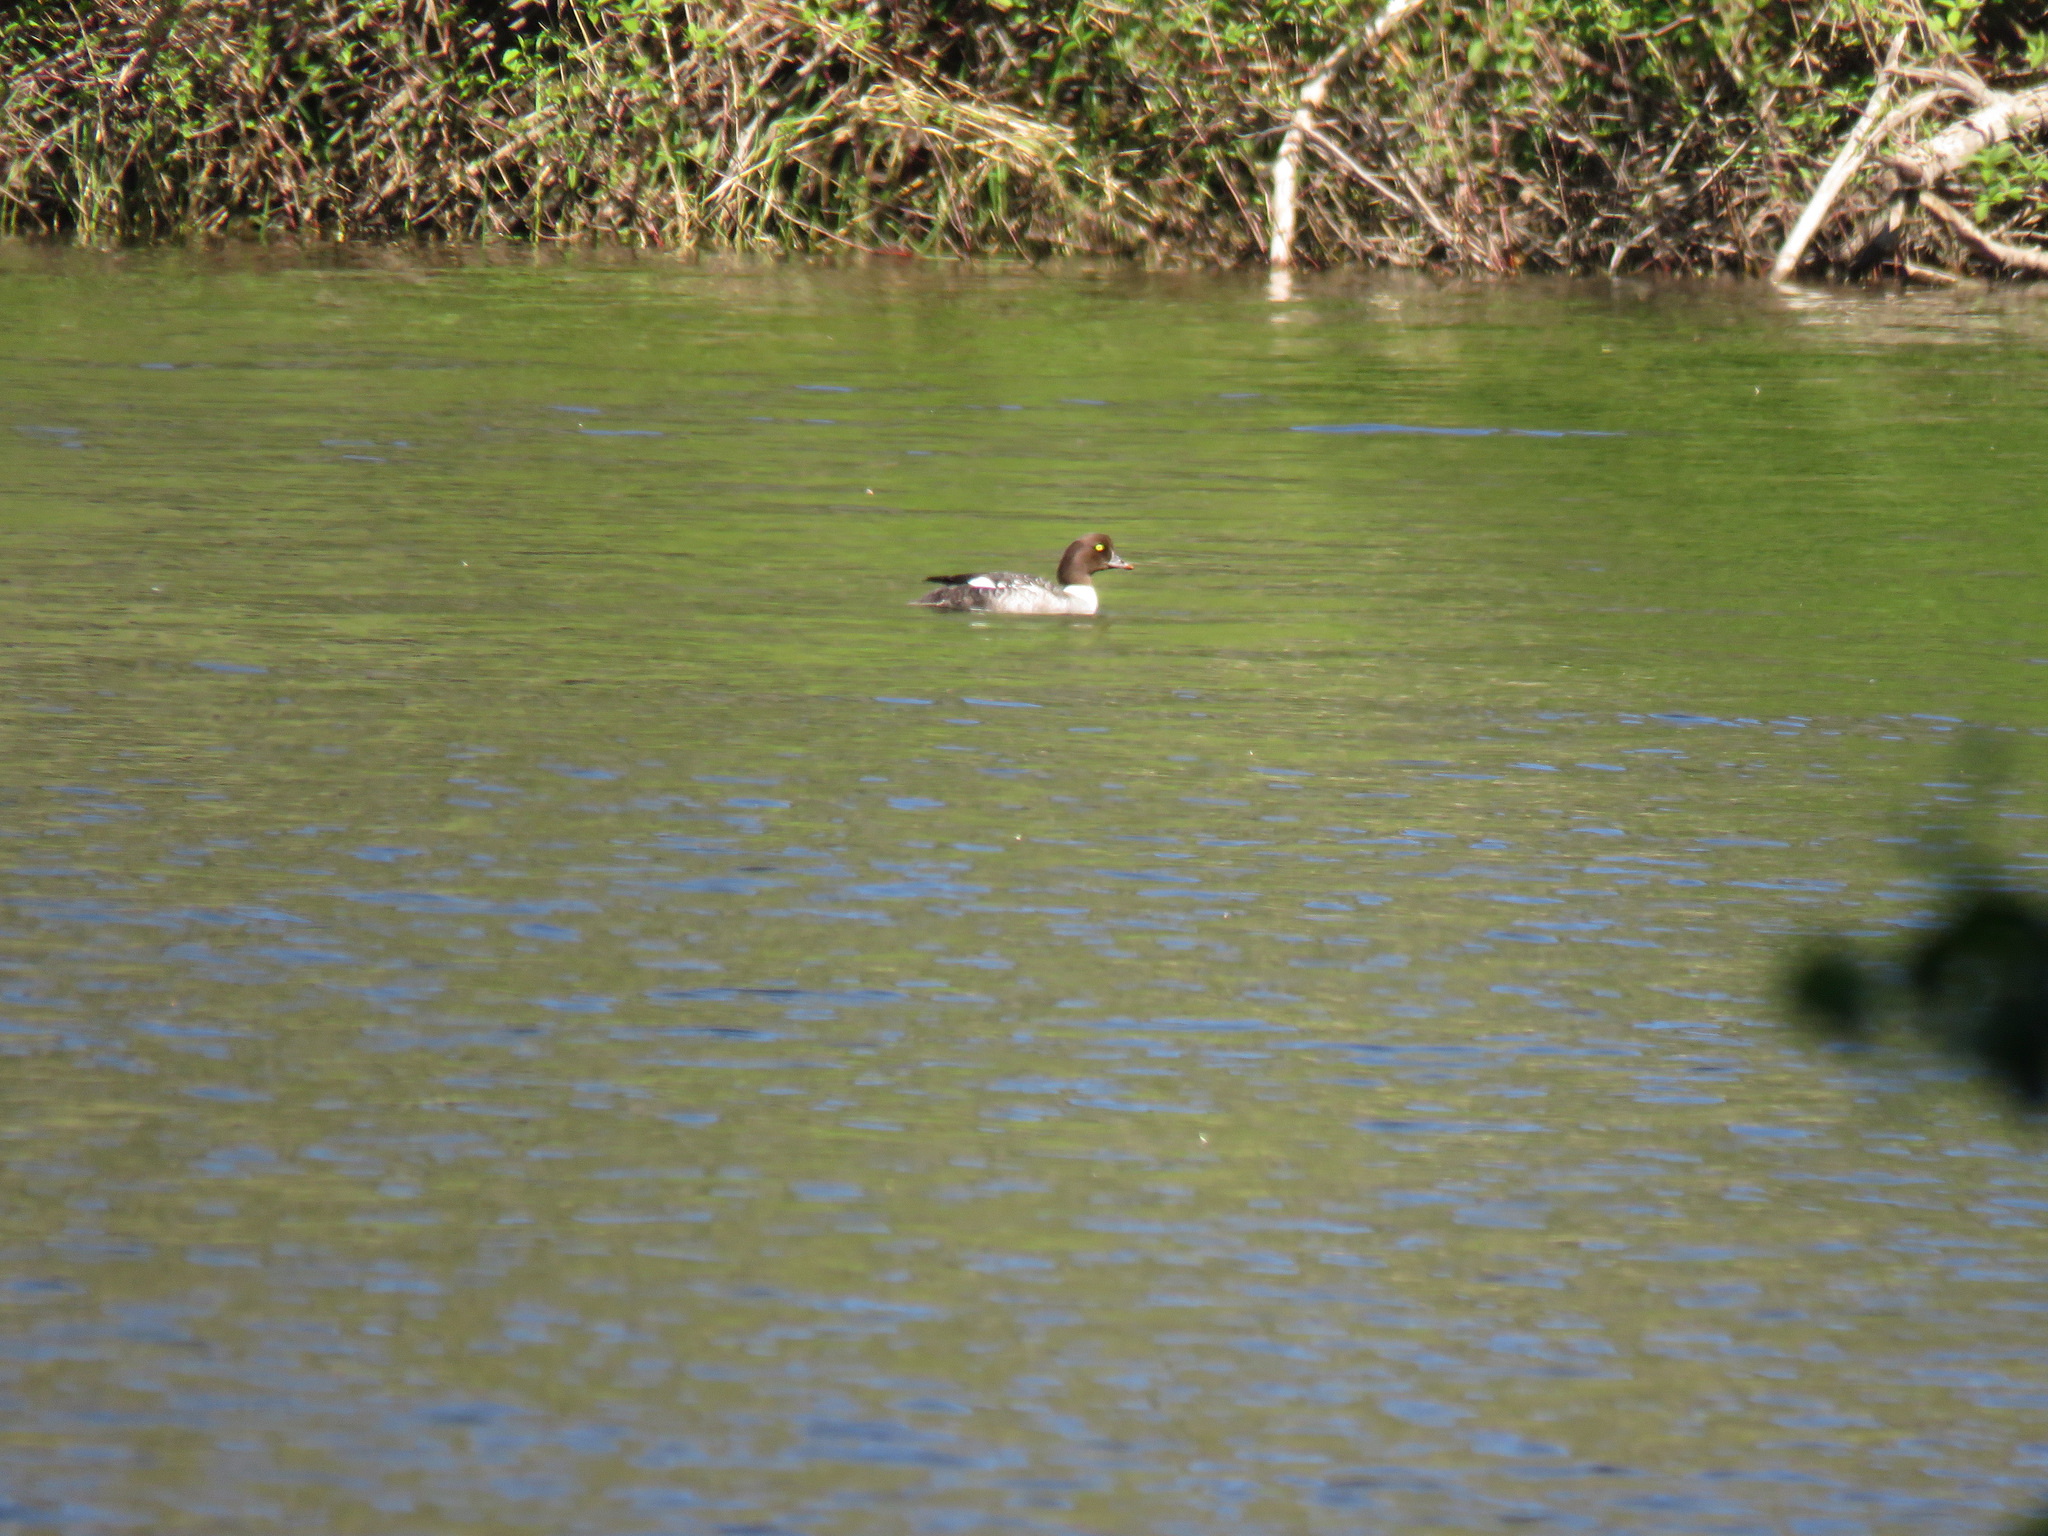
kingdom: Animalia
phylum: Chordata
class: Aves
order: Anseriformes
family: Anatidae
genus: Bucephala
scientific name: Bucephala islandica
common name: Barrow's goldeneye
